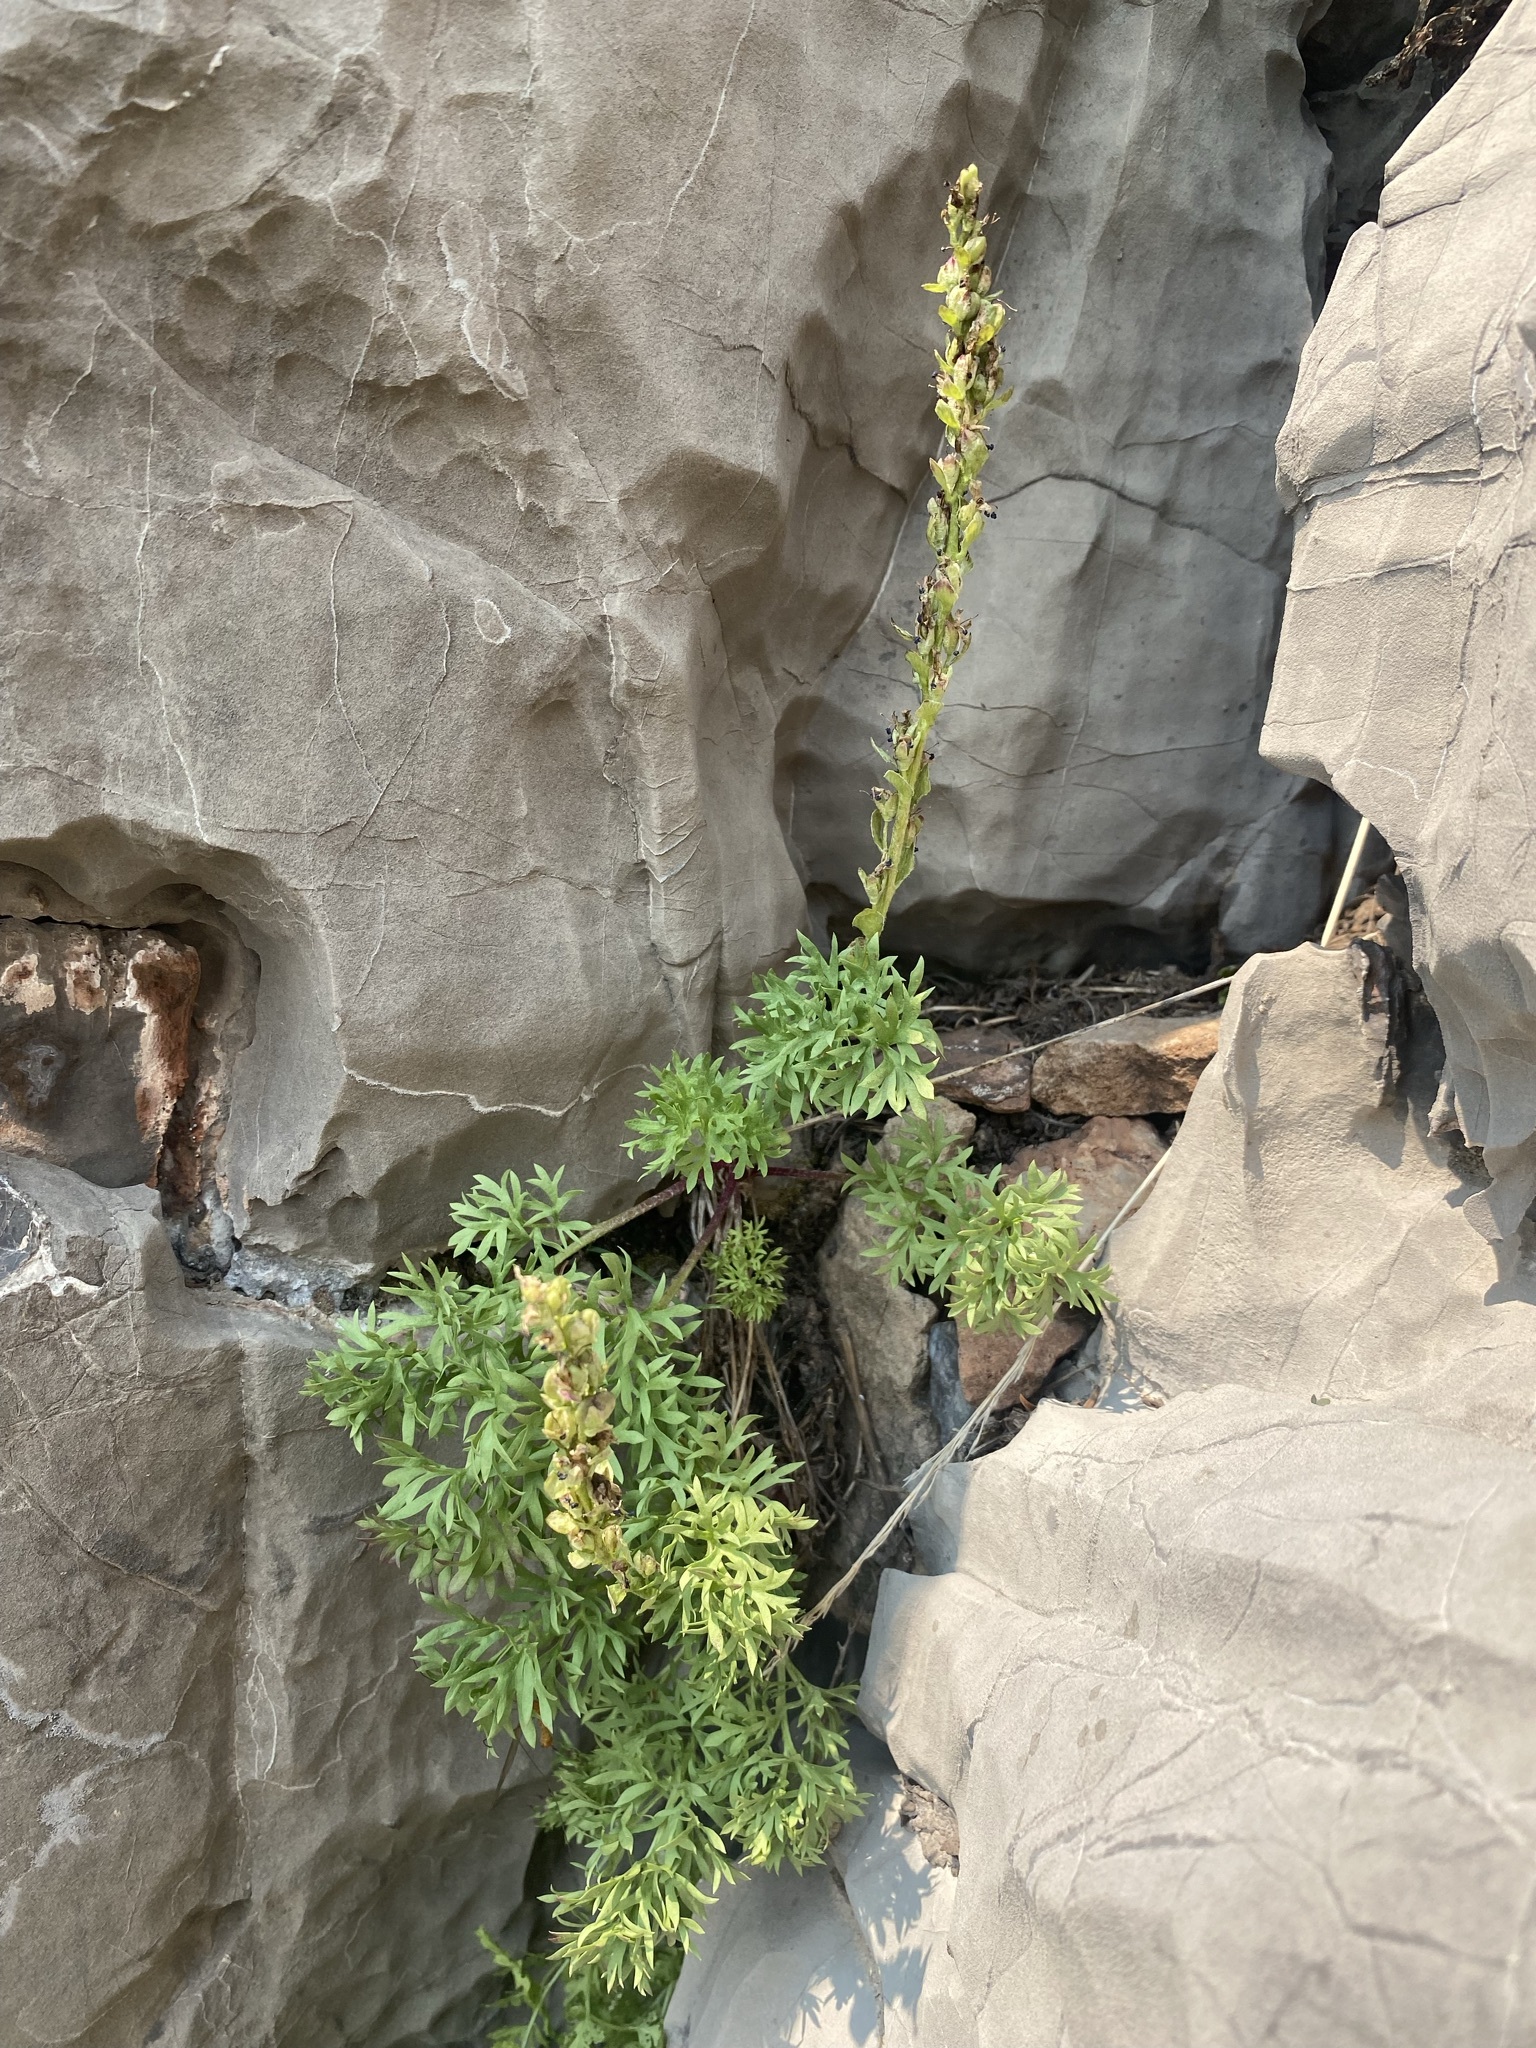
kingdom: Plantae
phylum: Tracheophyta
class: Magnoliopsida
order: Lamiales
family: Plantaginaceae
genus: Synthyris
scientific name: Synthyris pinnatifida
